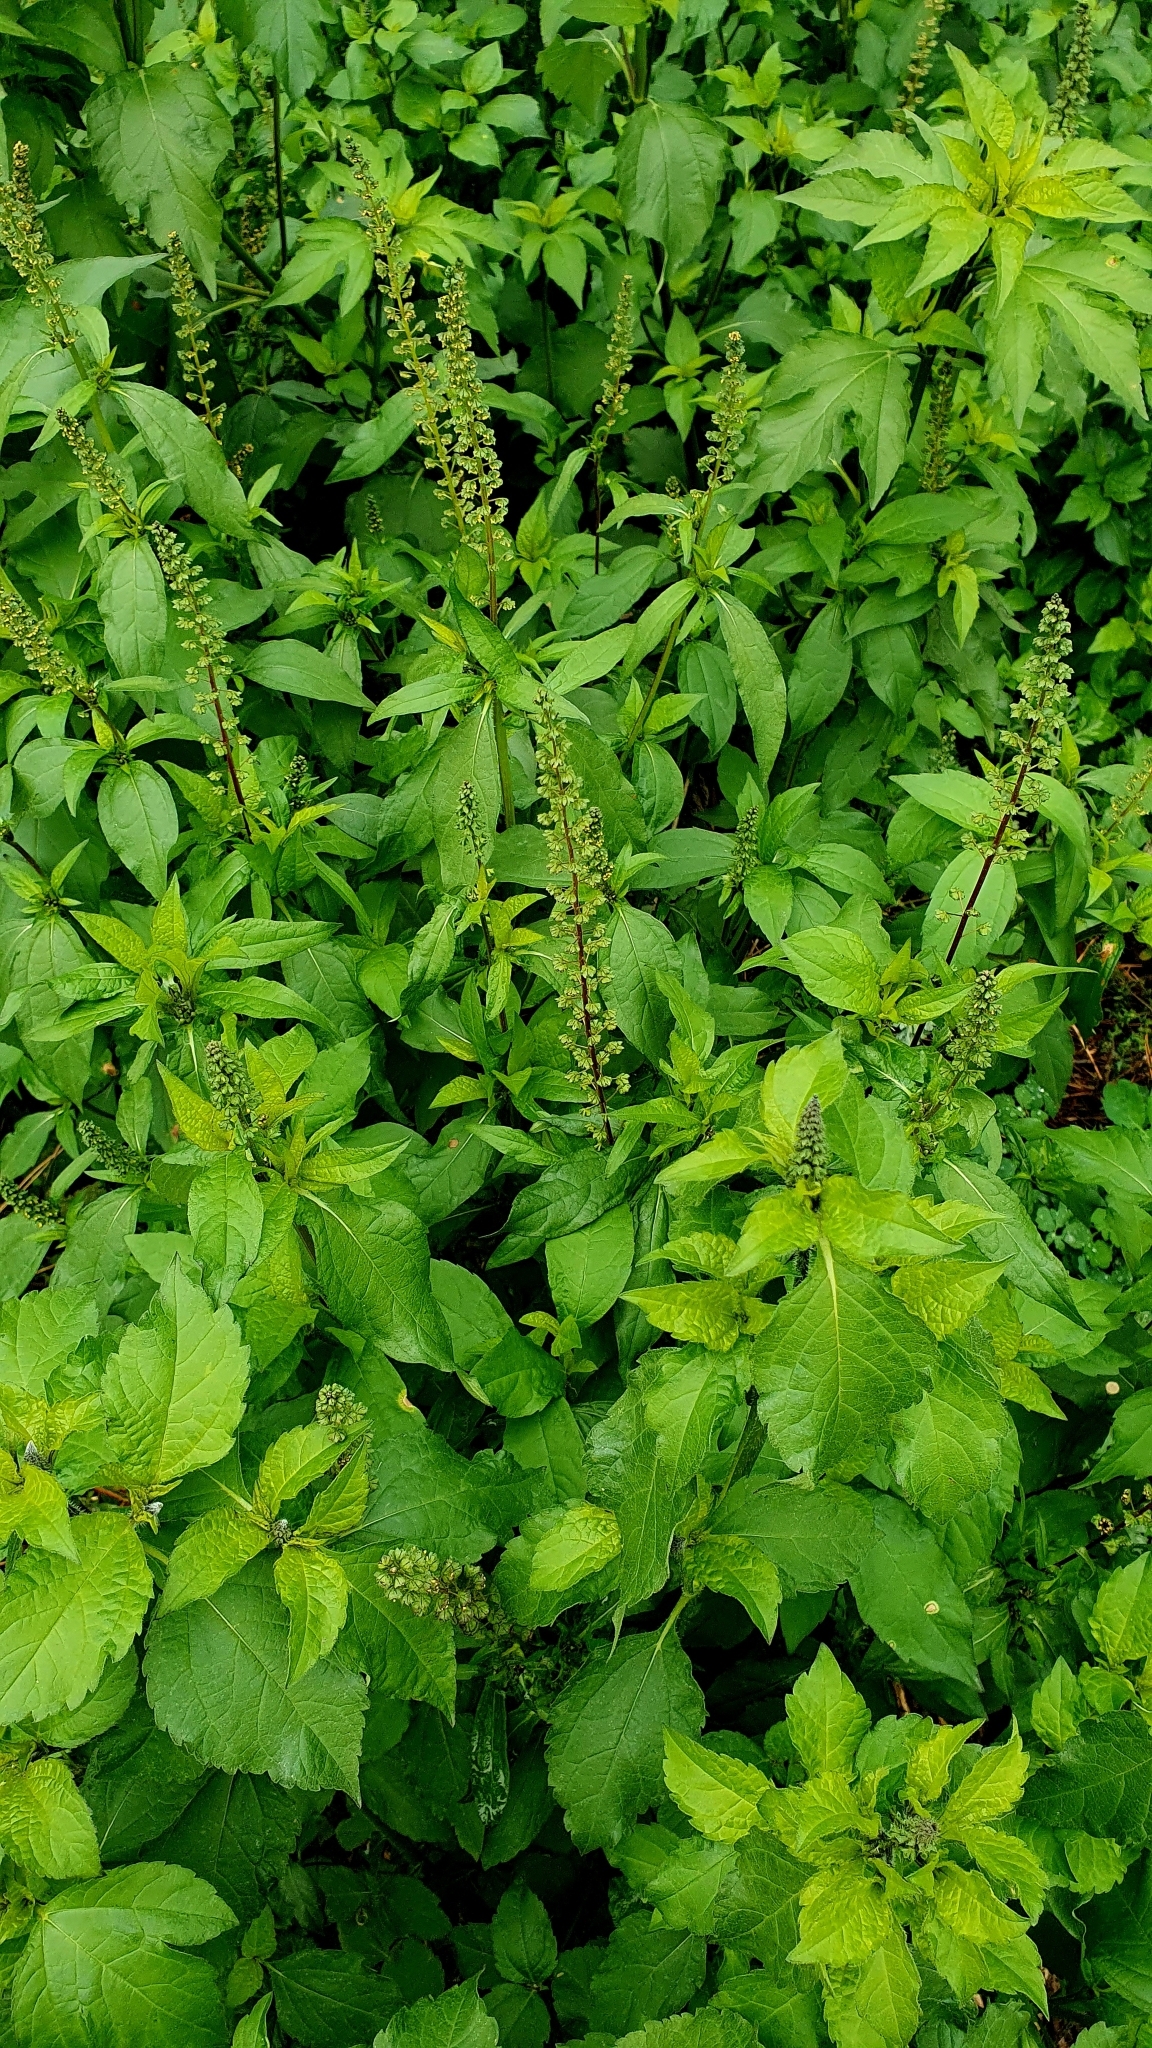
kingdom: Plantae
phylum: Tracheophyta
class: Magnoliopsida
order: Asterales
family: Asteraceae
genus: Ambrosia
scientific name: Ambrosia trifida
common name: Giant ragweed
